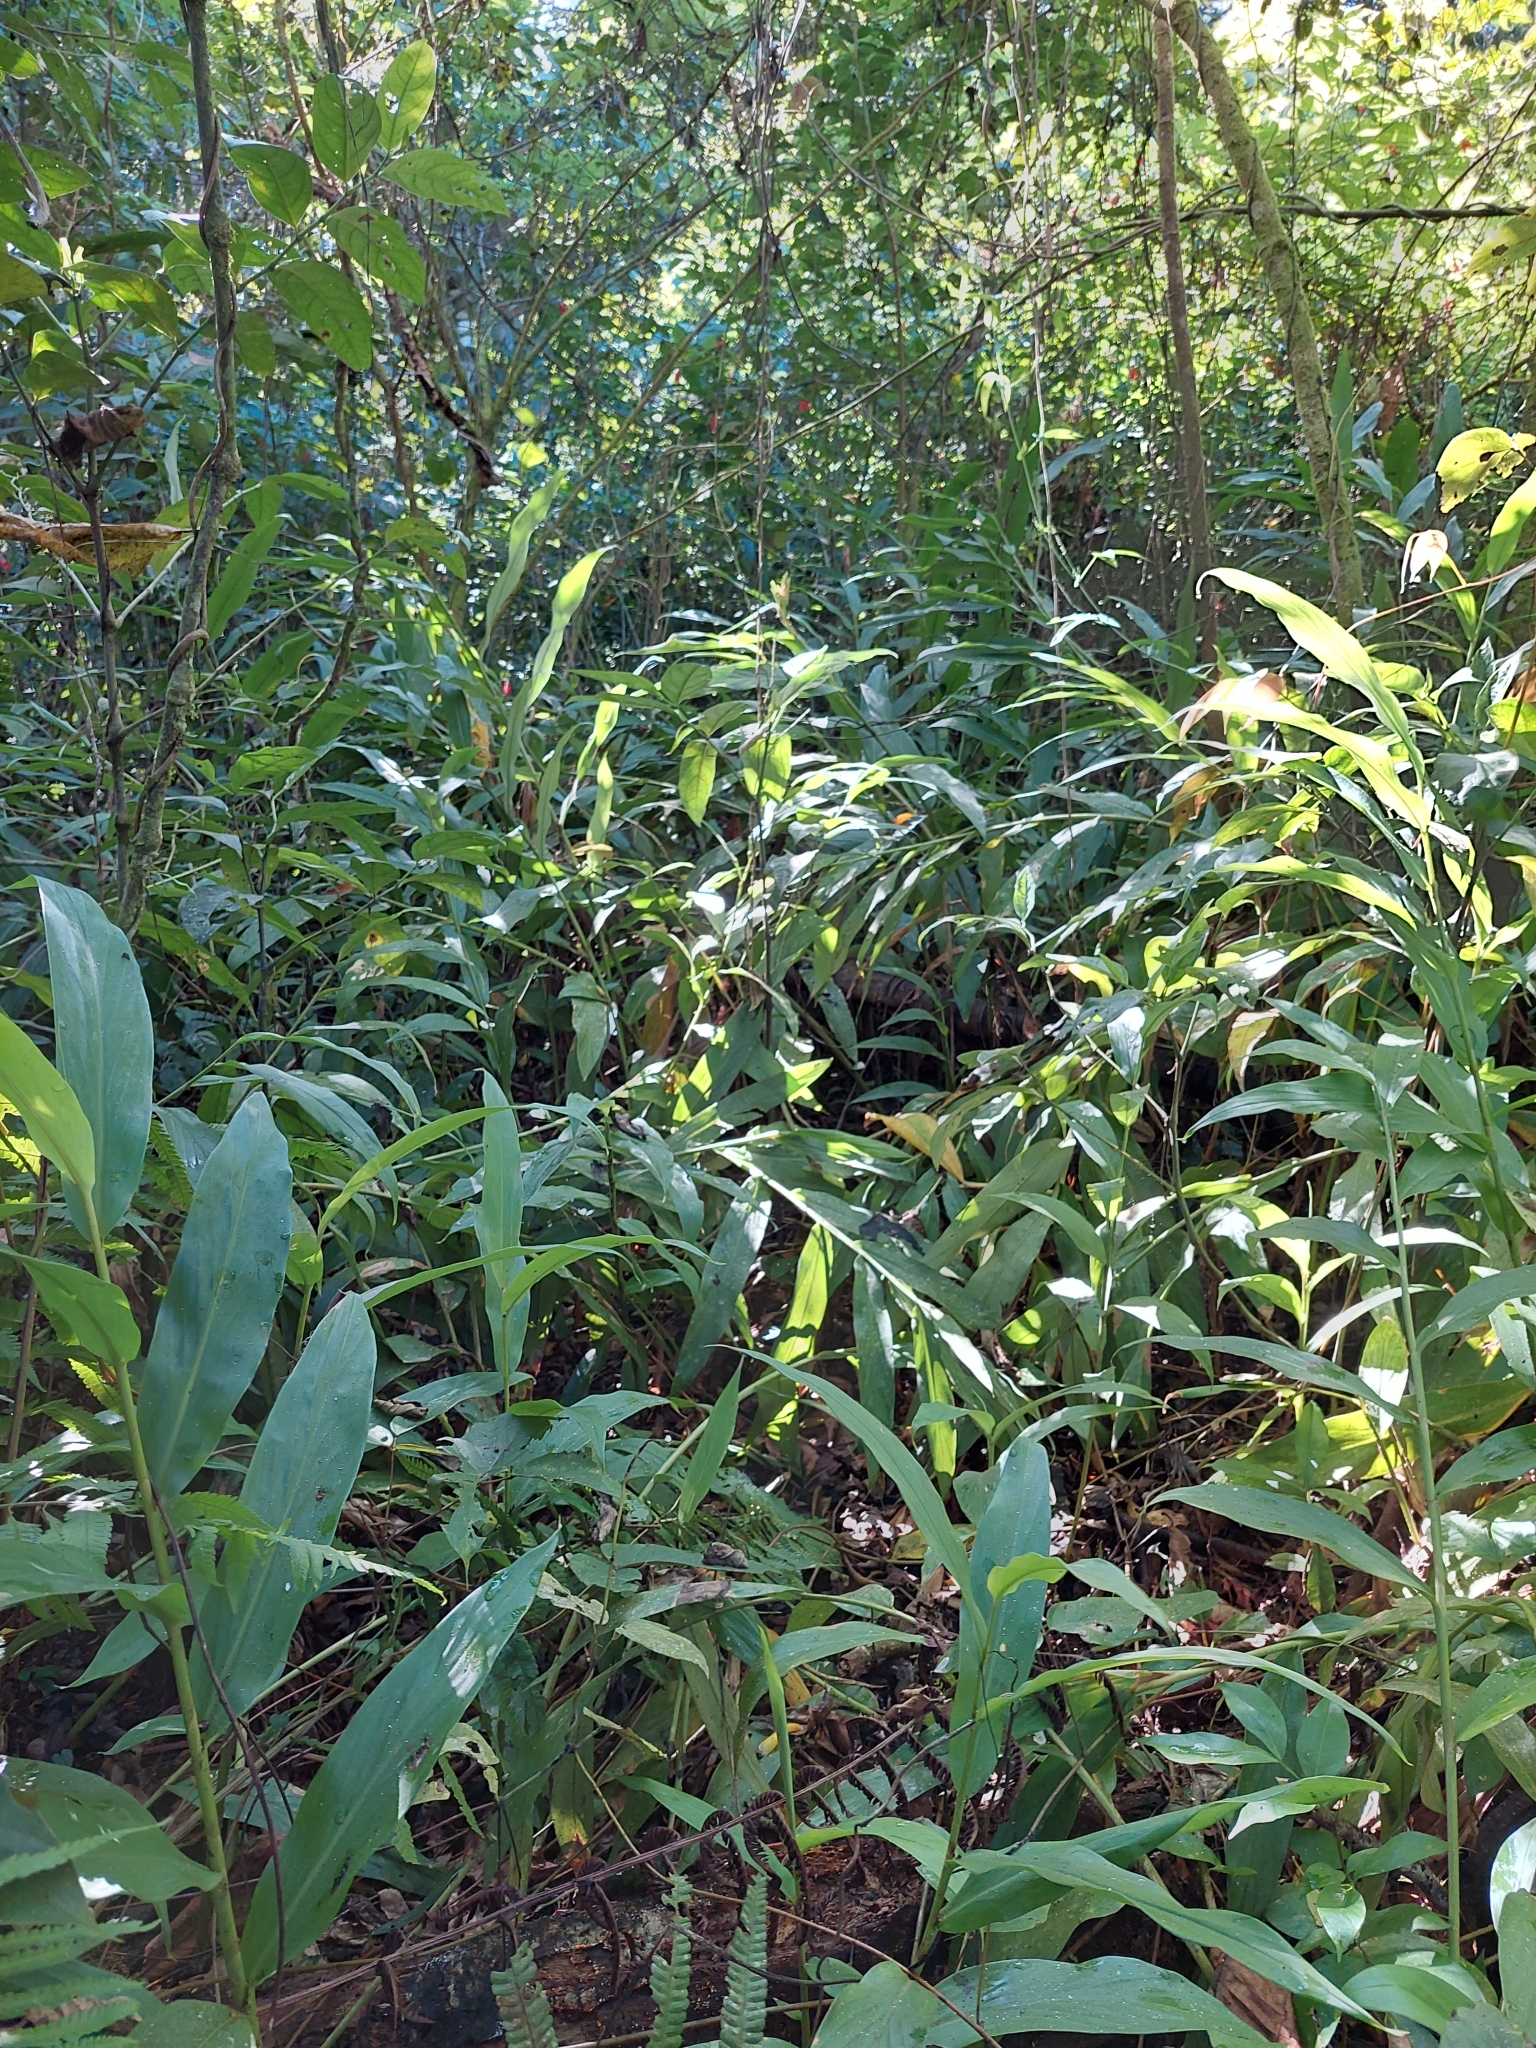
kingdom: Plantae
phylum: Tracheophyta
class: Liliopsida
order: Zingiberales
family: Zingiberaceae
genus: Hedychium
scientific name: Hedychium coronarium
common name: White garland-lily
